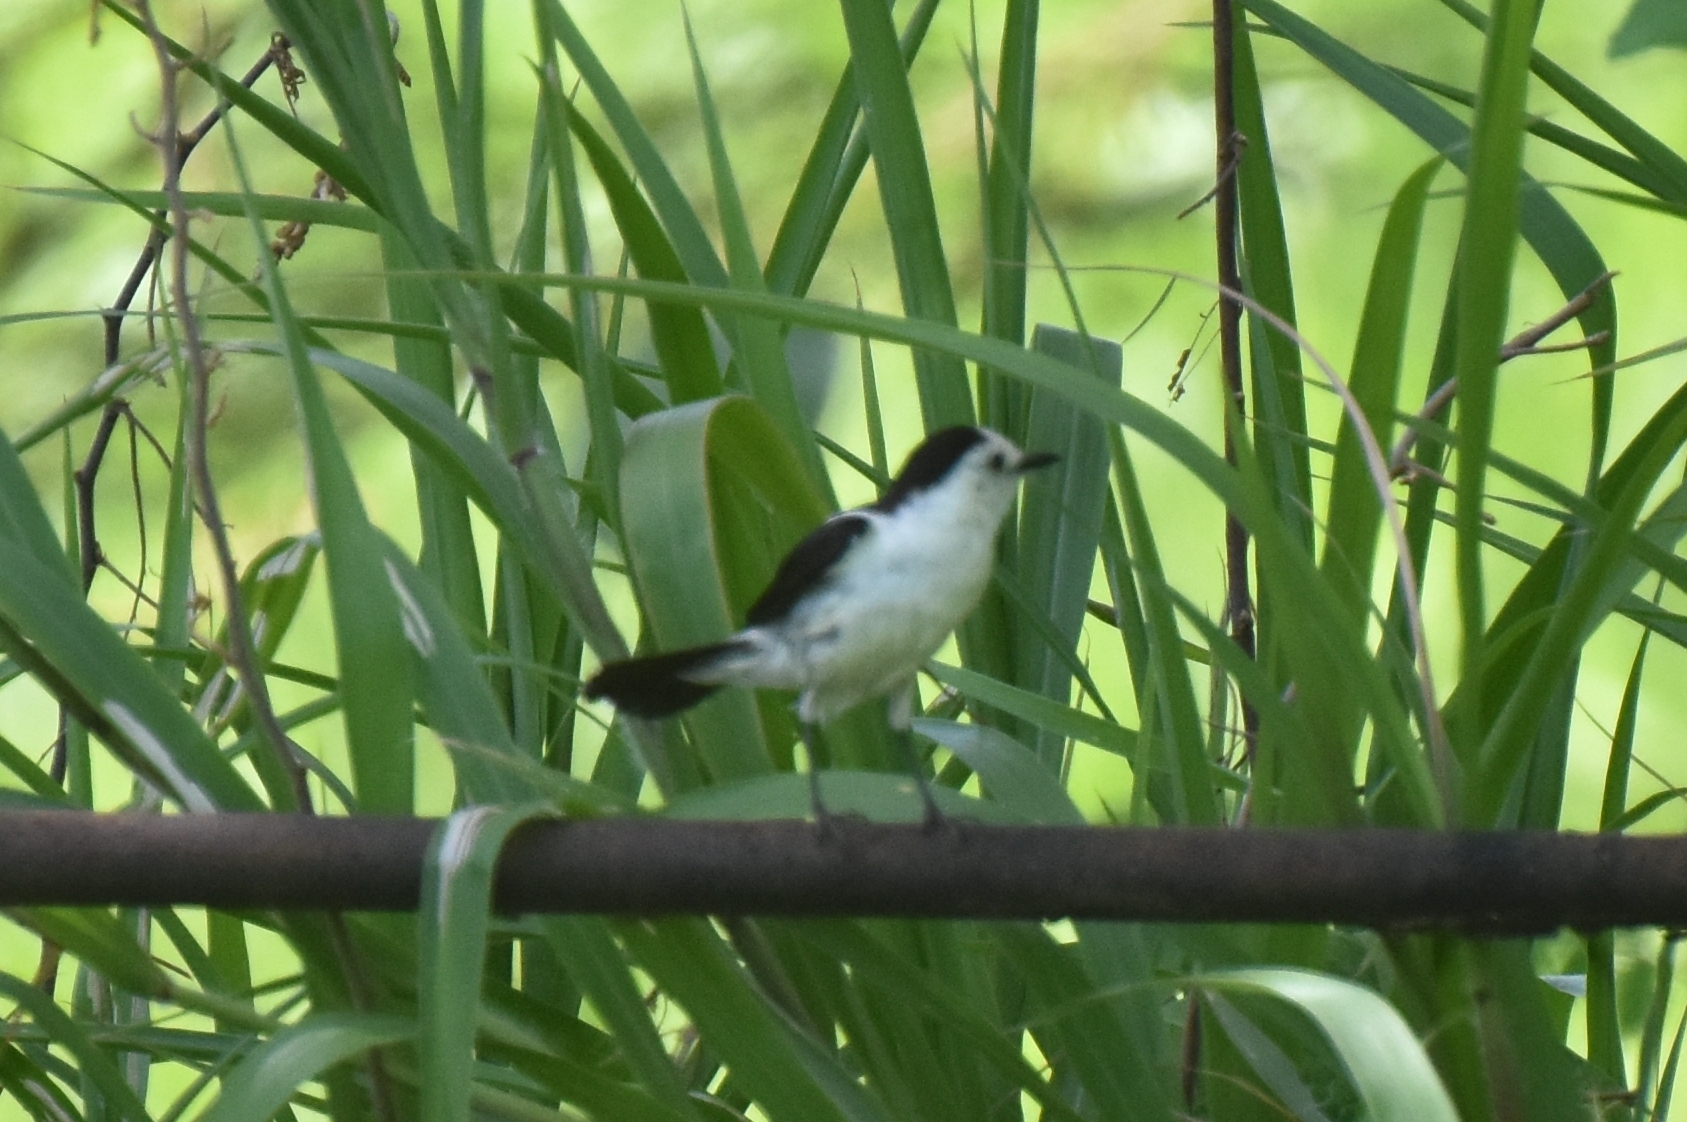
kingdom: Animalia
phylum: Chordata
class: Aves
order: Passeriformes
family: Tyrannidae
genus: Fluvicola
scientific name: Fluvicola pica
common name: Pied water-tyrant
